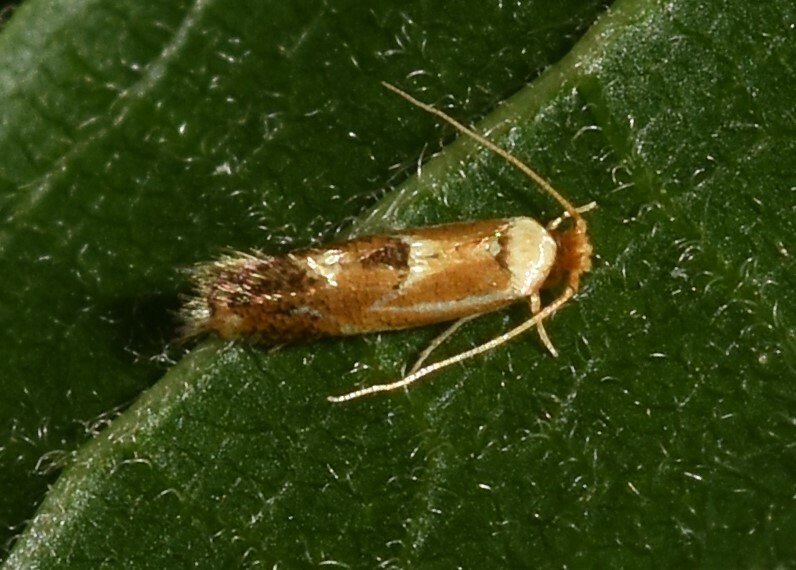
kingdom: Animalia
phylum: Arthropoda
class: Insecta
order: Lepidoptera
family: Lyonetiidae
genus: Philonome
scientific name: Philonome clemensella
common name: Clemen's philonome moth
